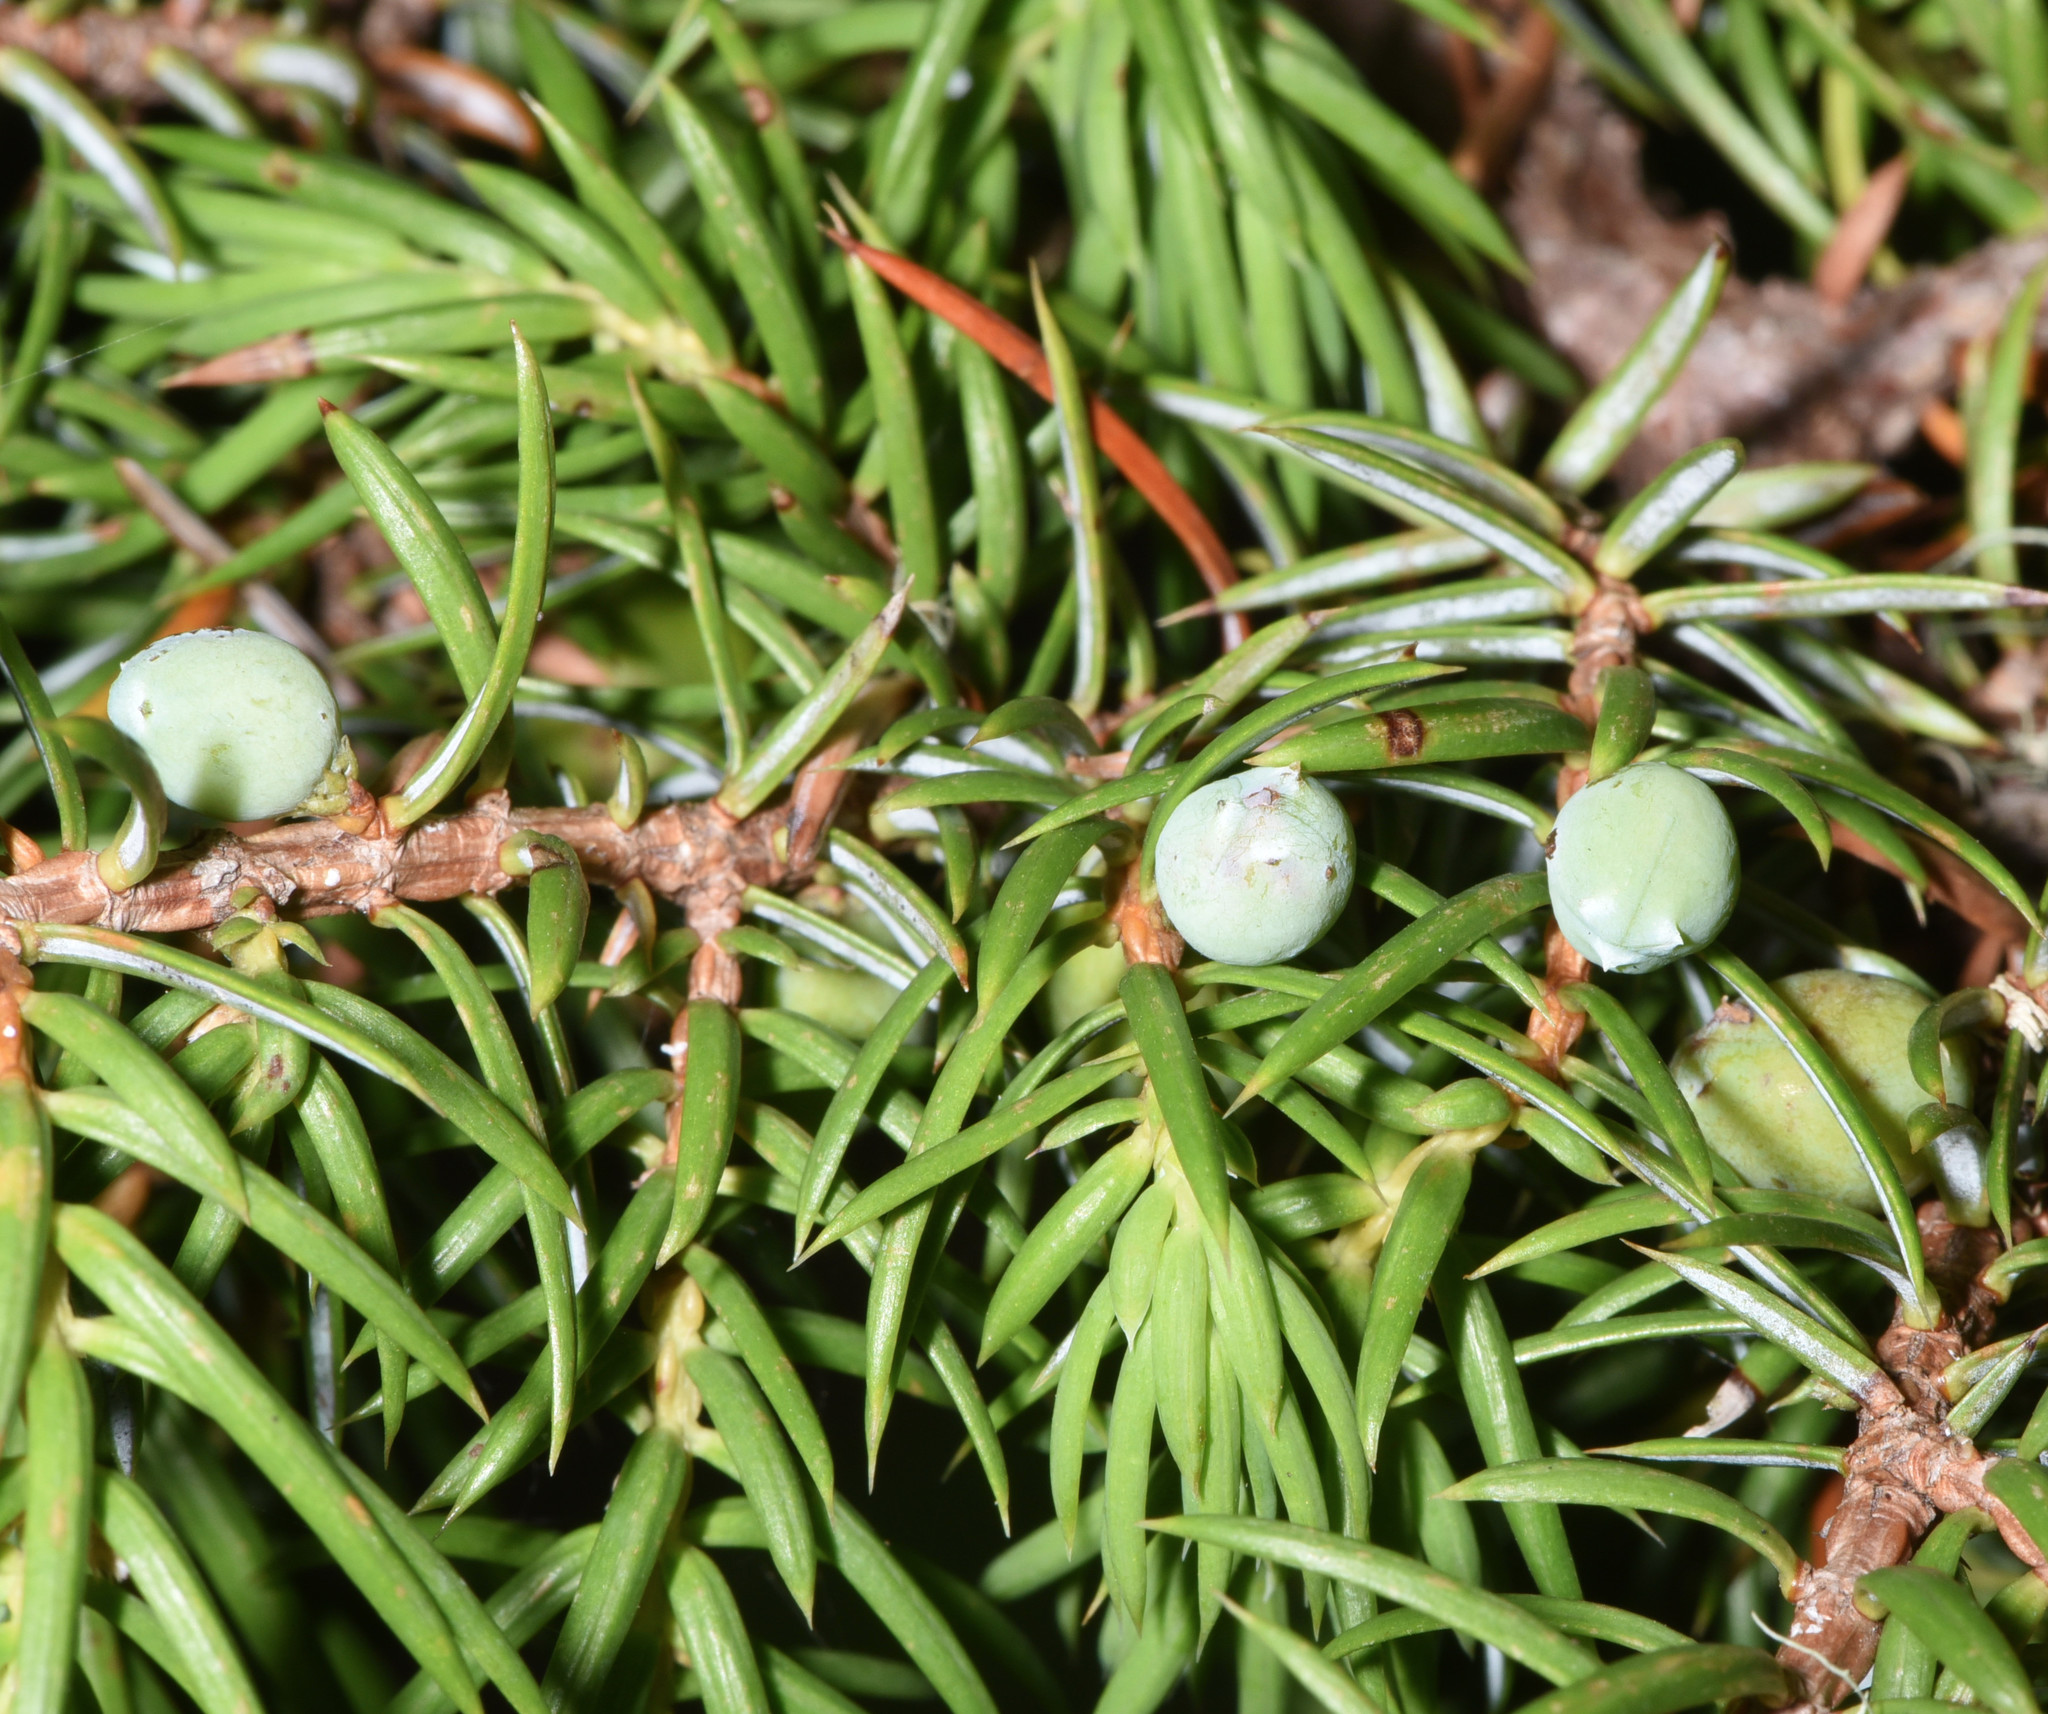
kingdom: Plantae
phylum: Tracheophyta
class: Pinopsida
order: Pinales
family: Cupressaceae
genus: Juniperus
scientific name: Juniperus communis
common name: Common juniper
